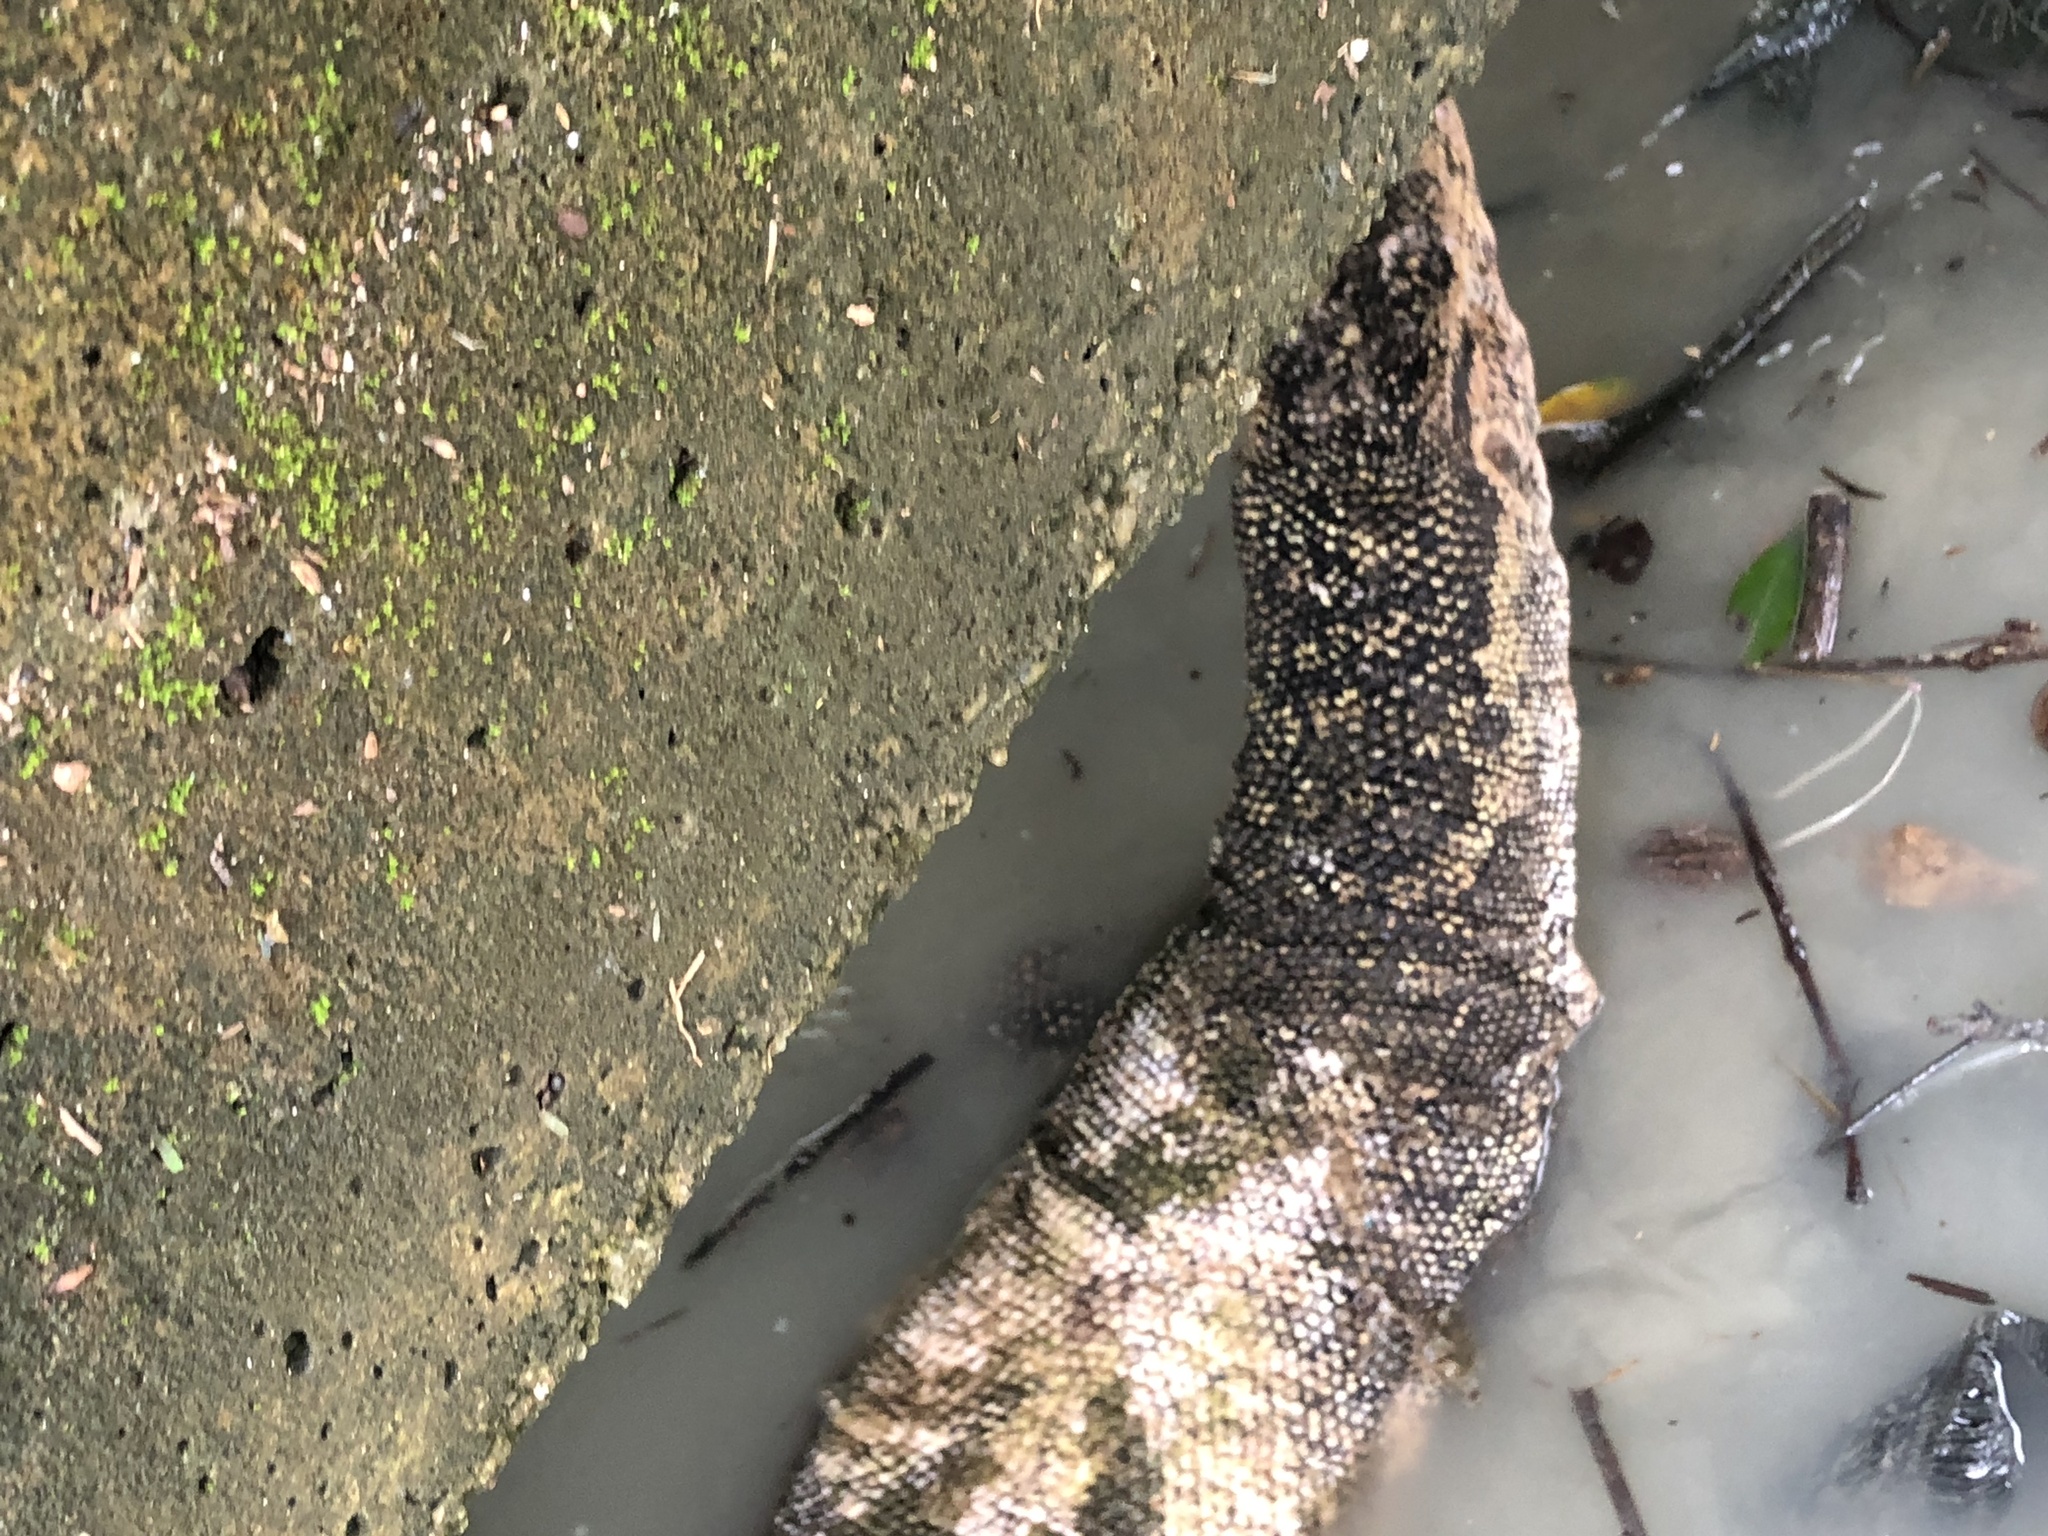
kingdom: Animalia
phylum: Chordata
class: Squamata
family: Varanidae
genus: Varanus
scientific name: Varanus salvator
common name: Common water monitor
